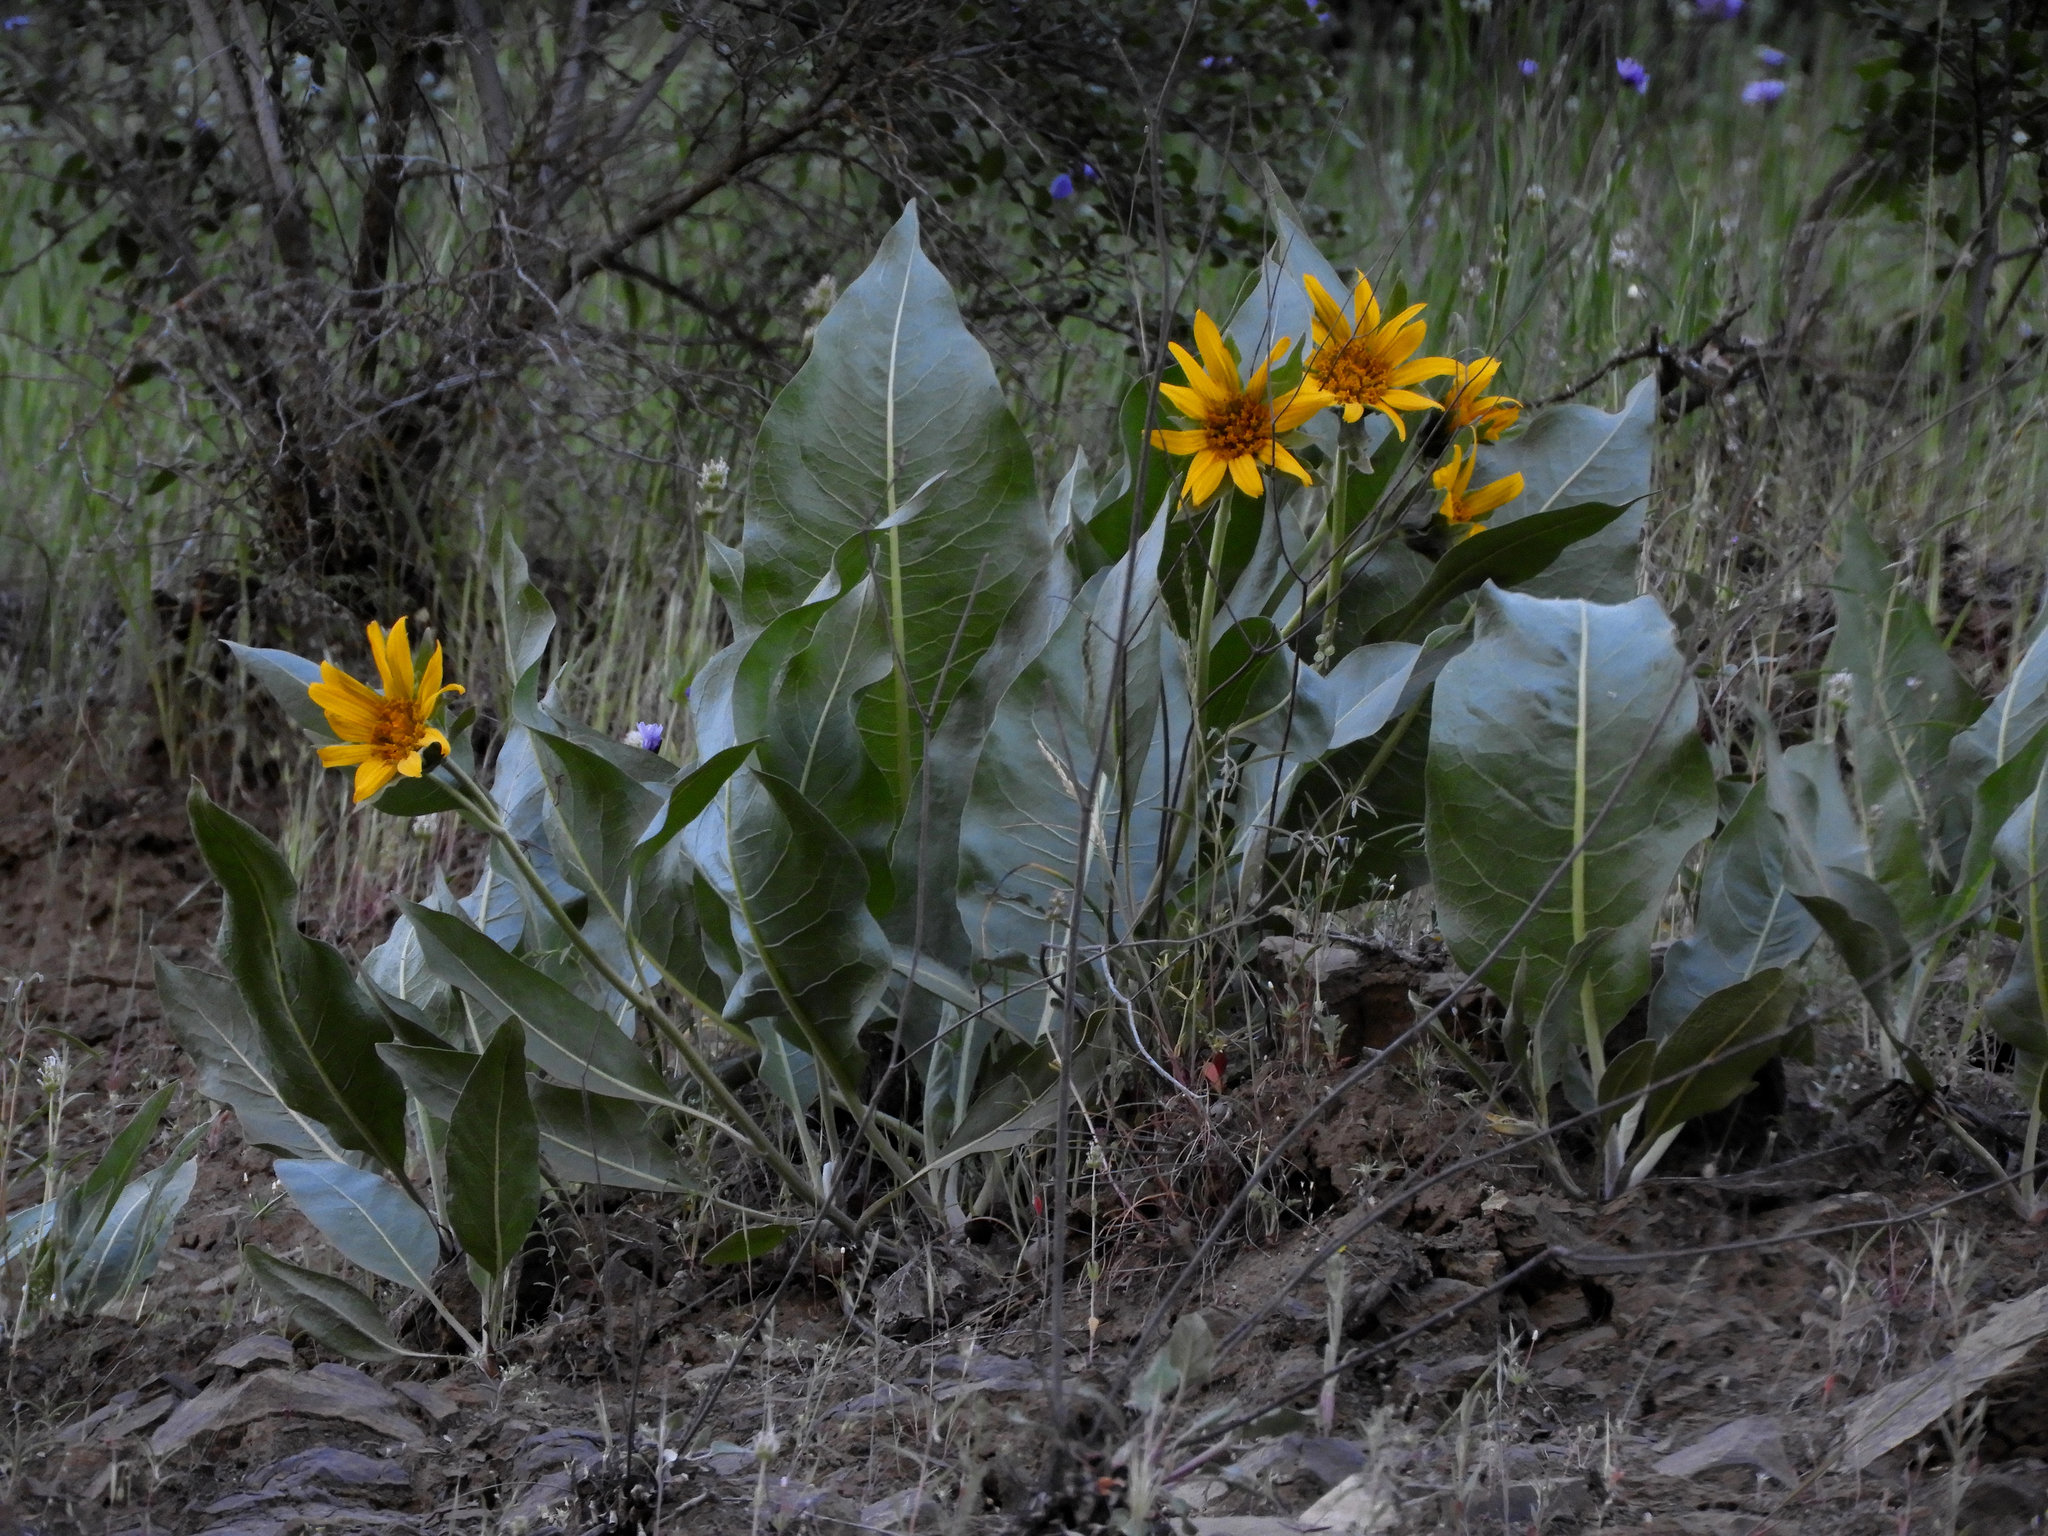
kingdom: Plantae
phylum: Tracheophyta
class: Magnoliopsida
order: Asterales
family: Asteraceae
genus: Wyethia
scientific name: Wyethia glabra
